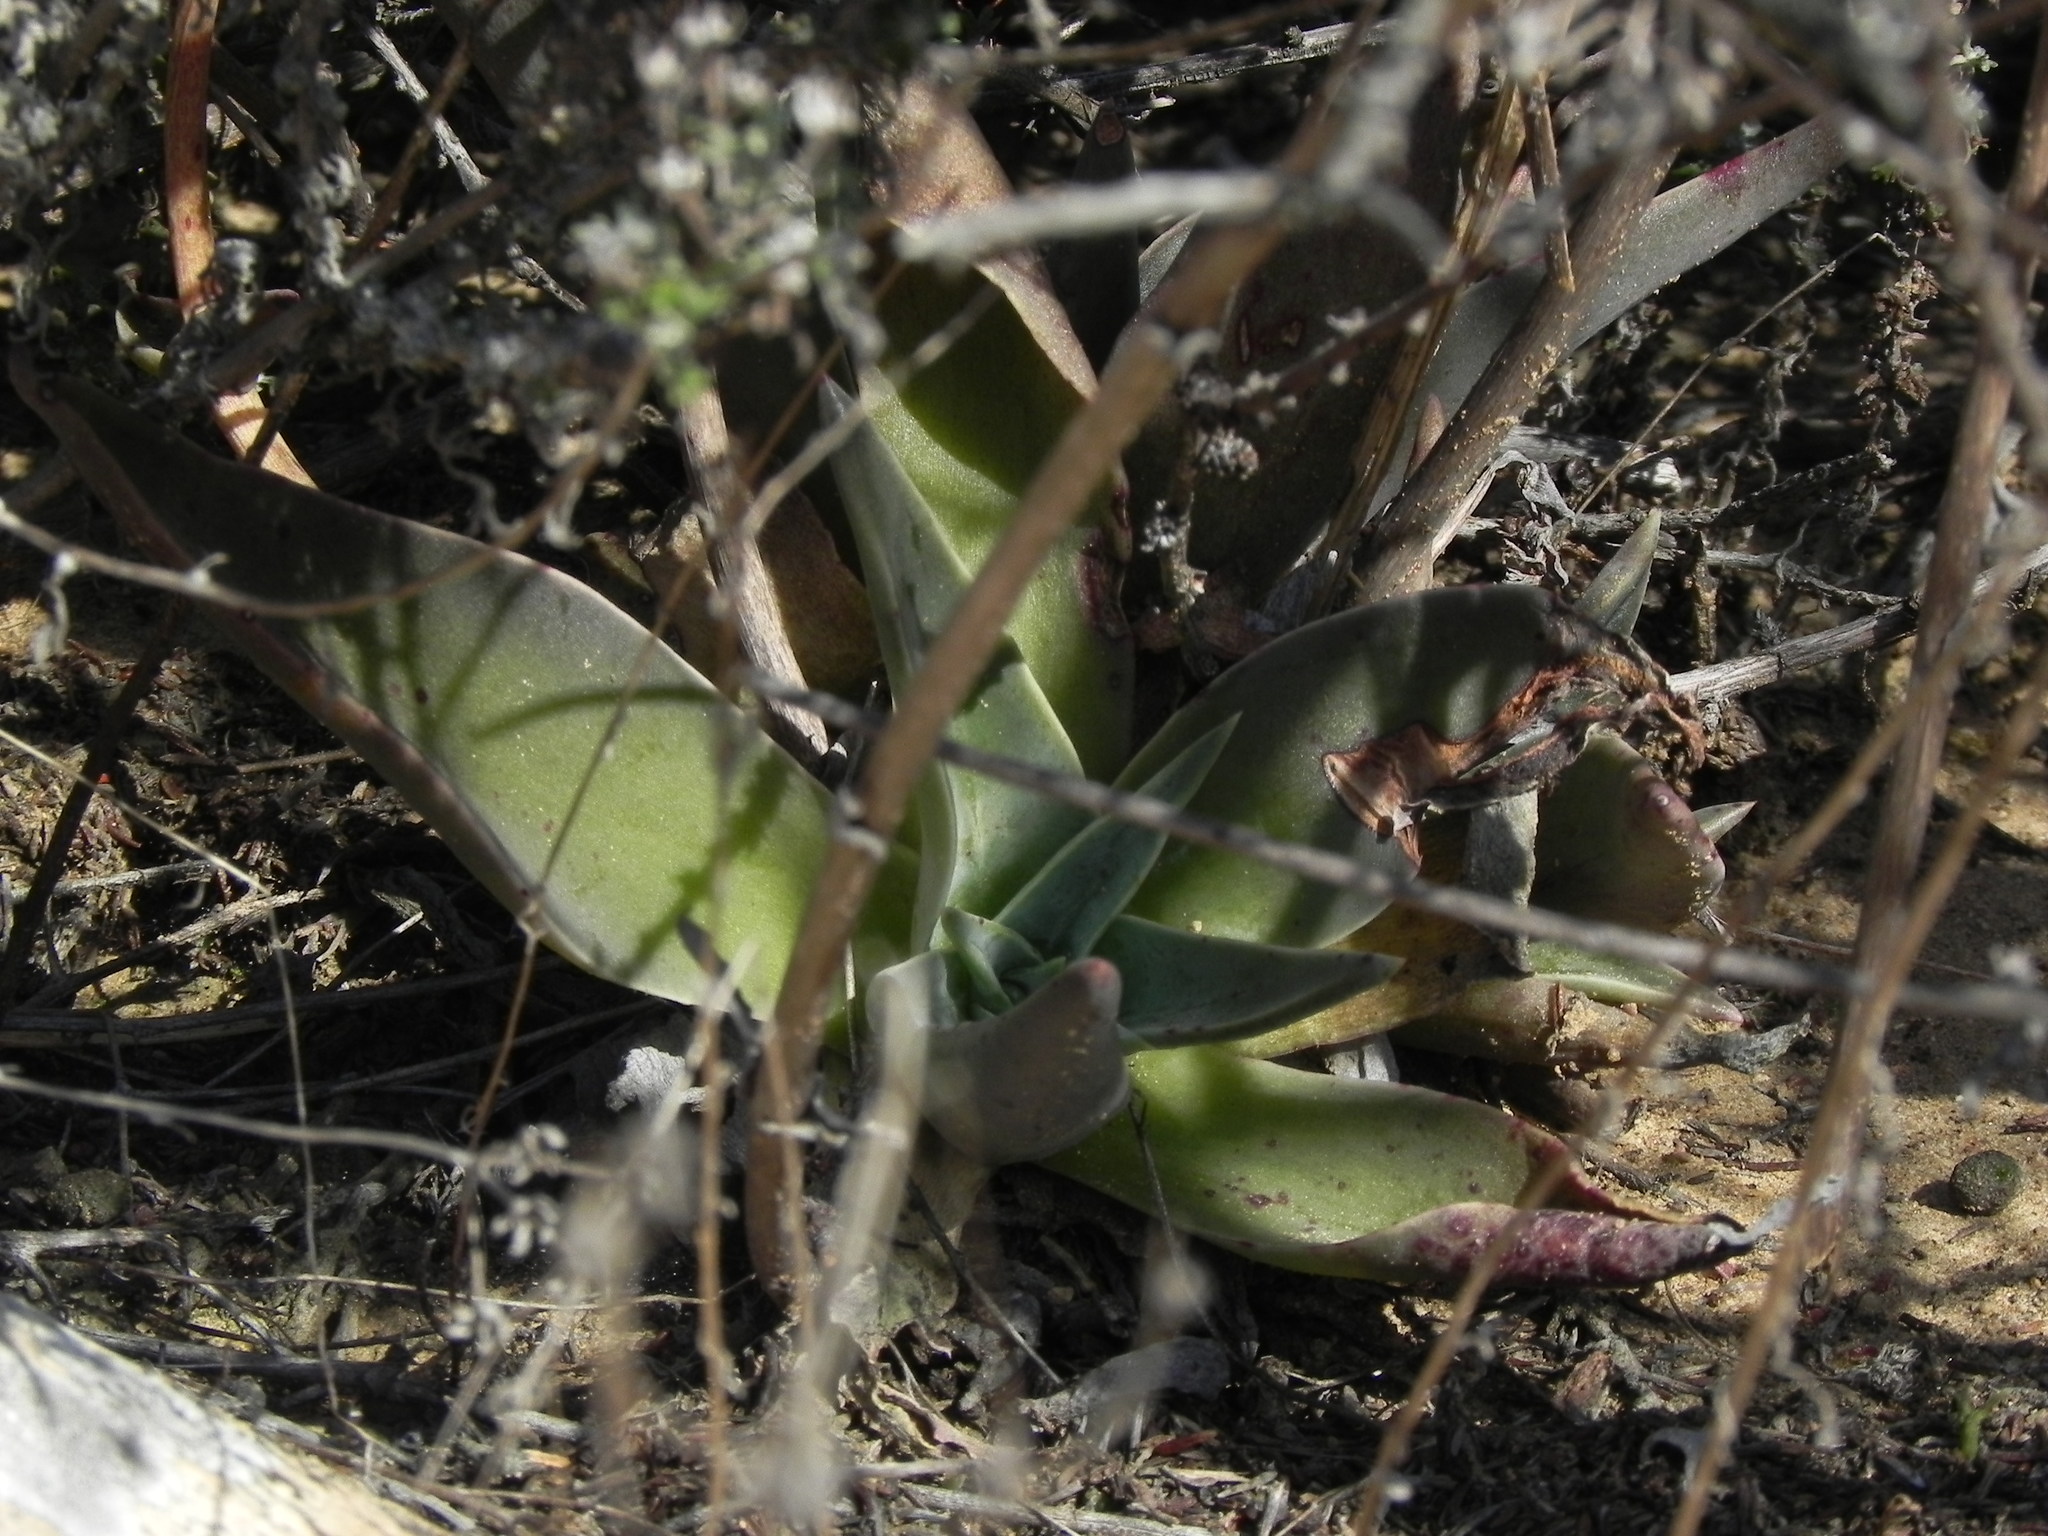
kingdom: Plantae
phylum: Tracheophyta
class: Magnoliopsida
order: Saxifragales
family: Crassulaceae
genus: Dudleya
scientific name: Dudleya lanceolata
